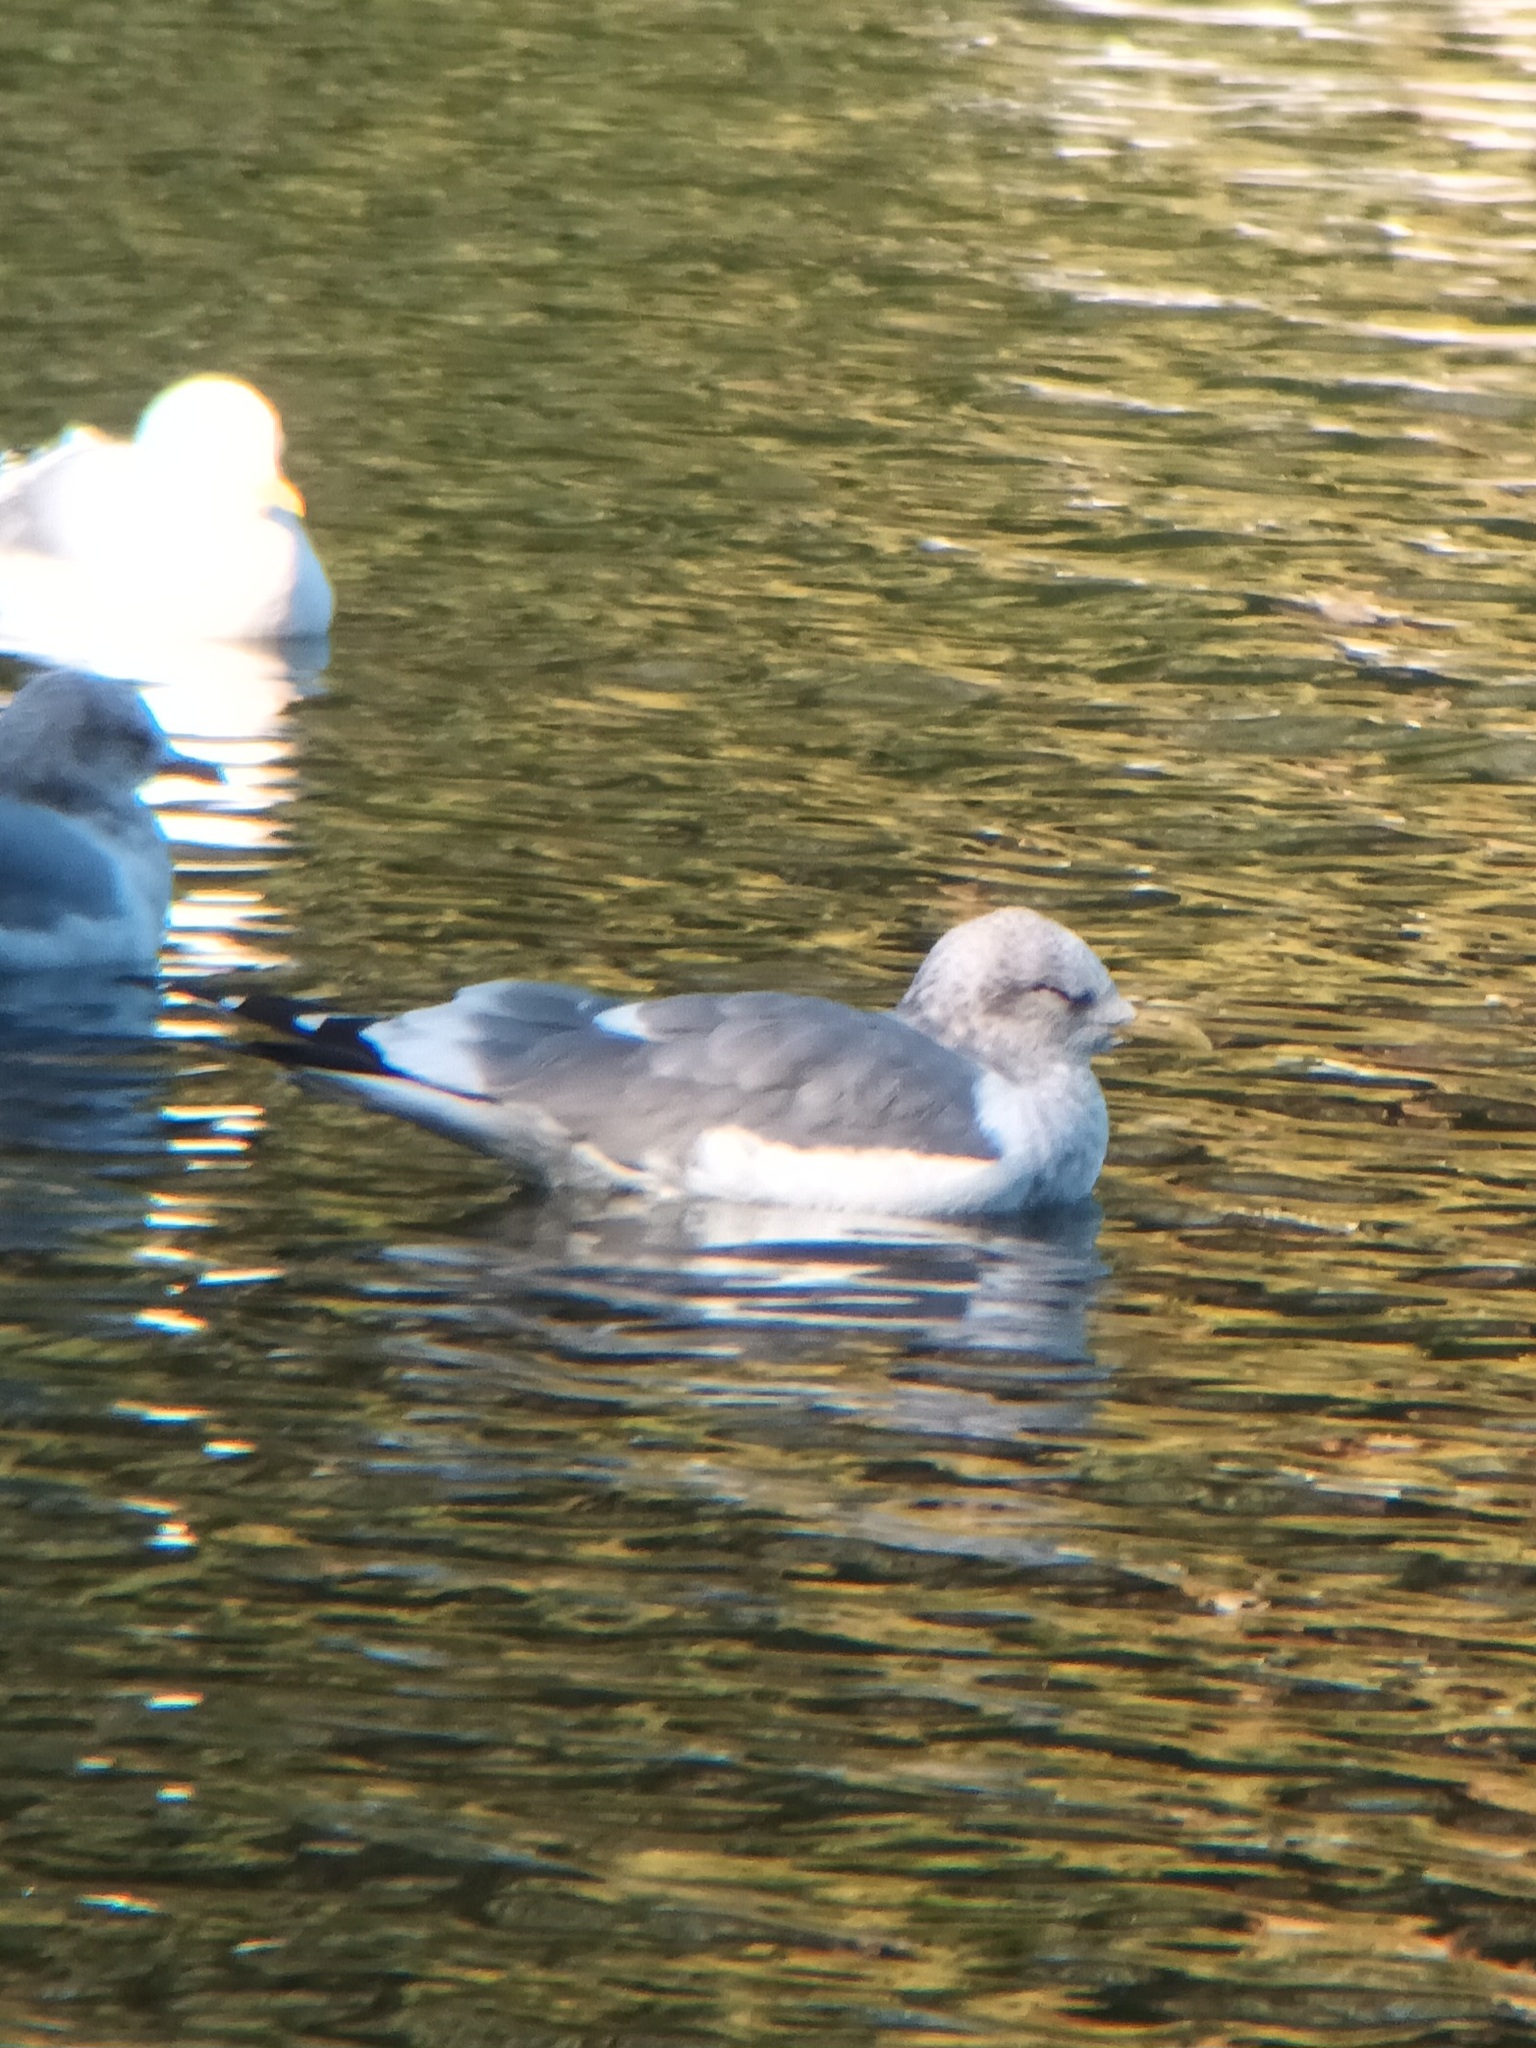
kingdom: Animalia
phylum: Chordata
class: Aves
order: Charadriiformes
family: Laridae
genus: Larus
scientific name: Larus brachyrhynchus
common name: Short-billed gull
